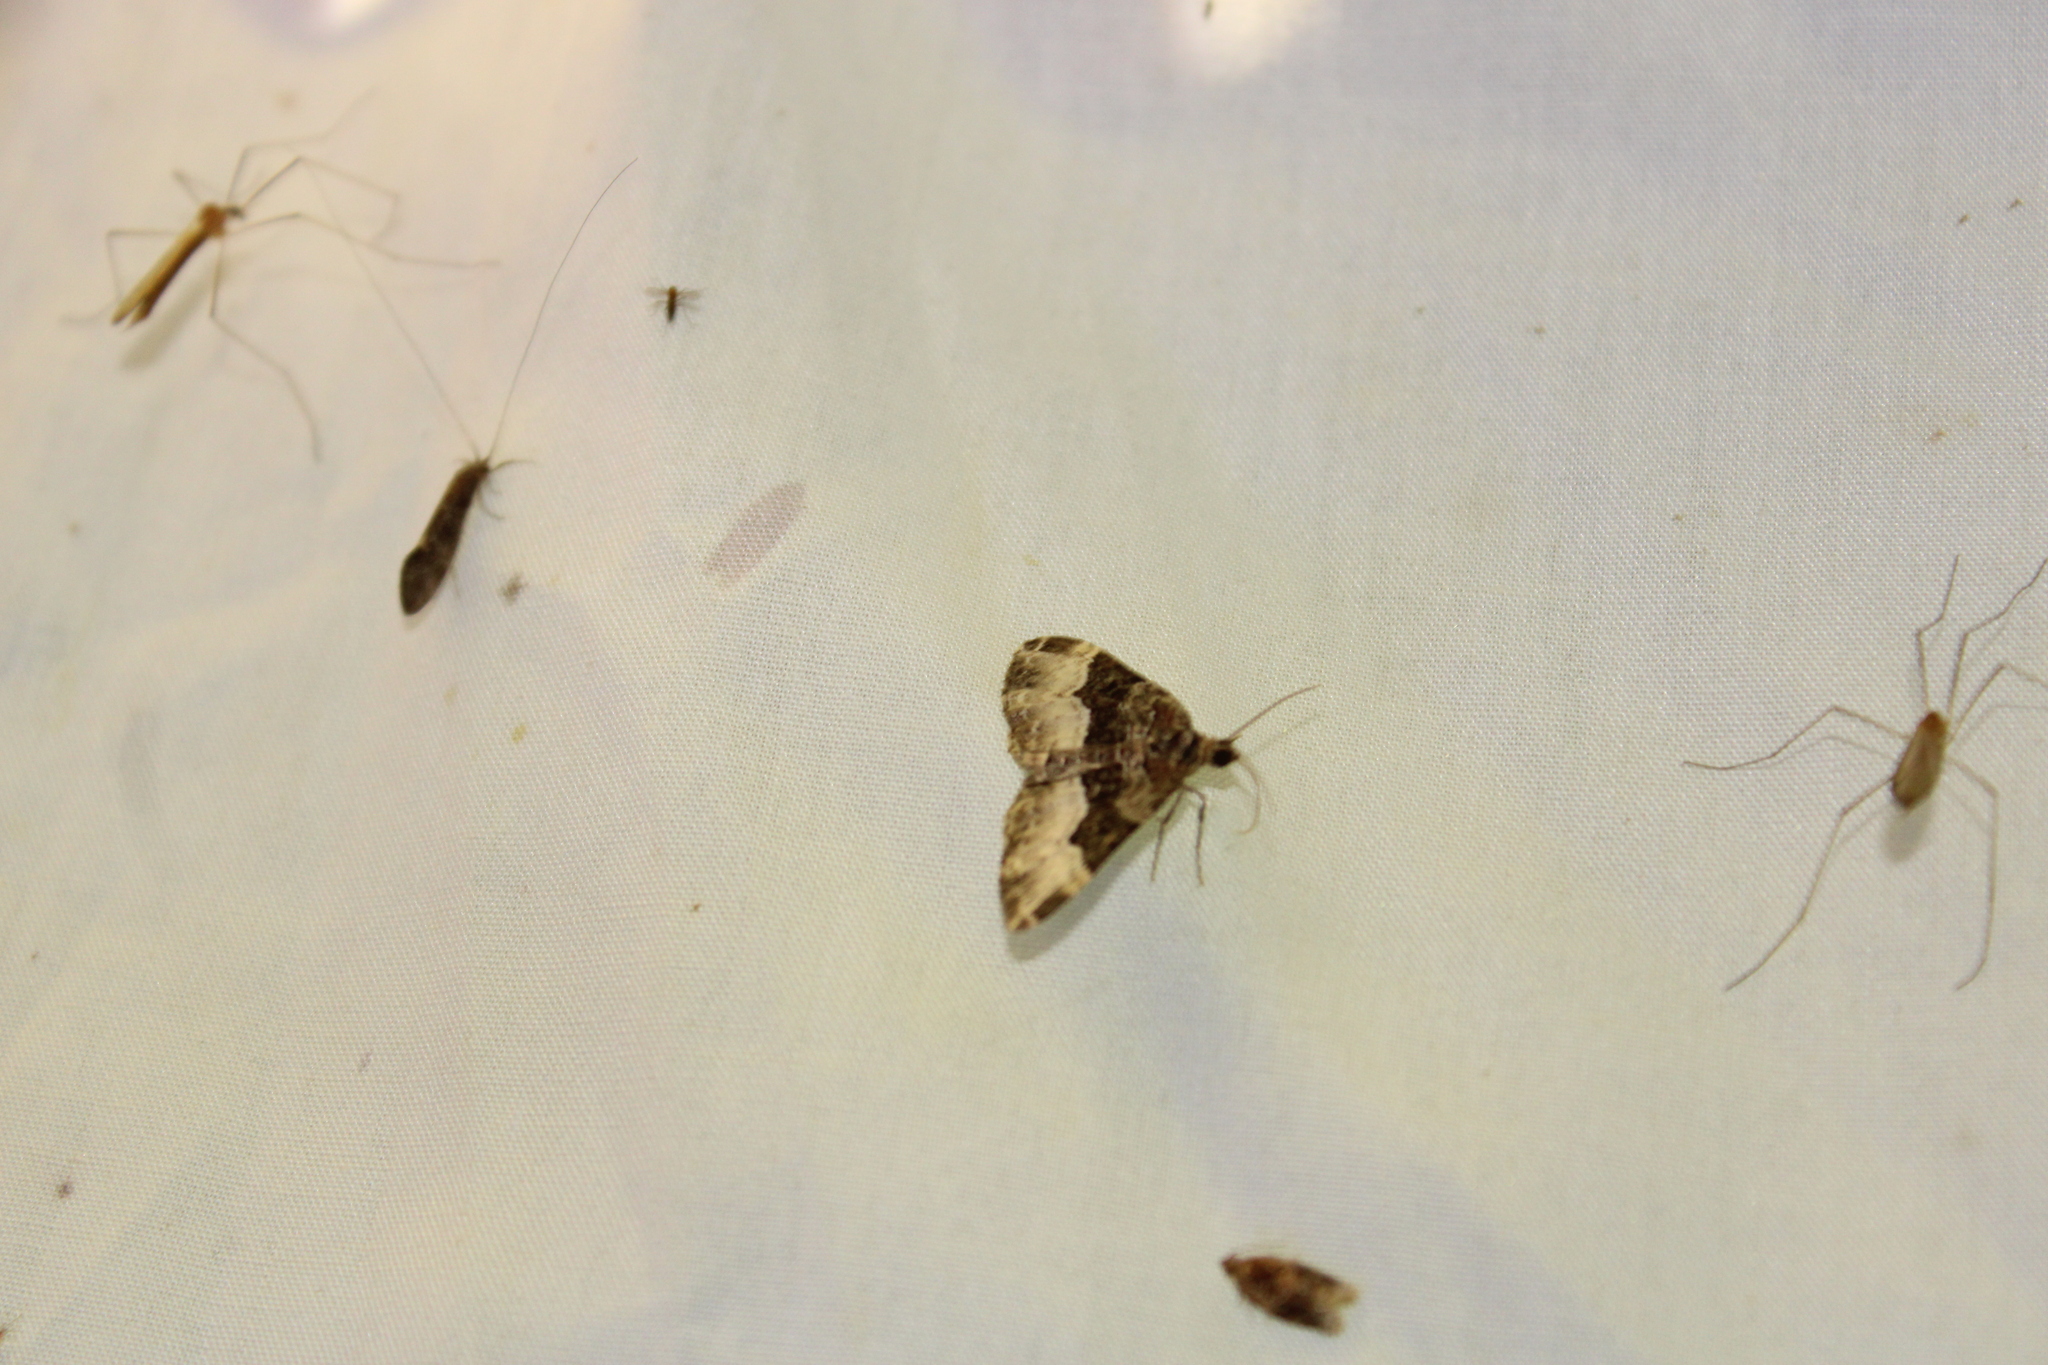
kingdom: Animalia
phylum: Arthropoda
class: Insecta
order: Lepidoptera
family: Geometridae
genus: Euphyia
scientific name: Euphyia intermediata
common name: Sharp-angled carpet
